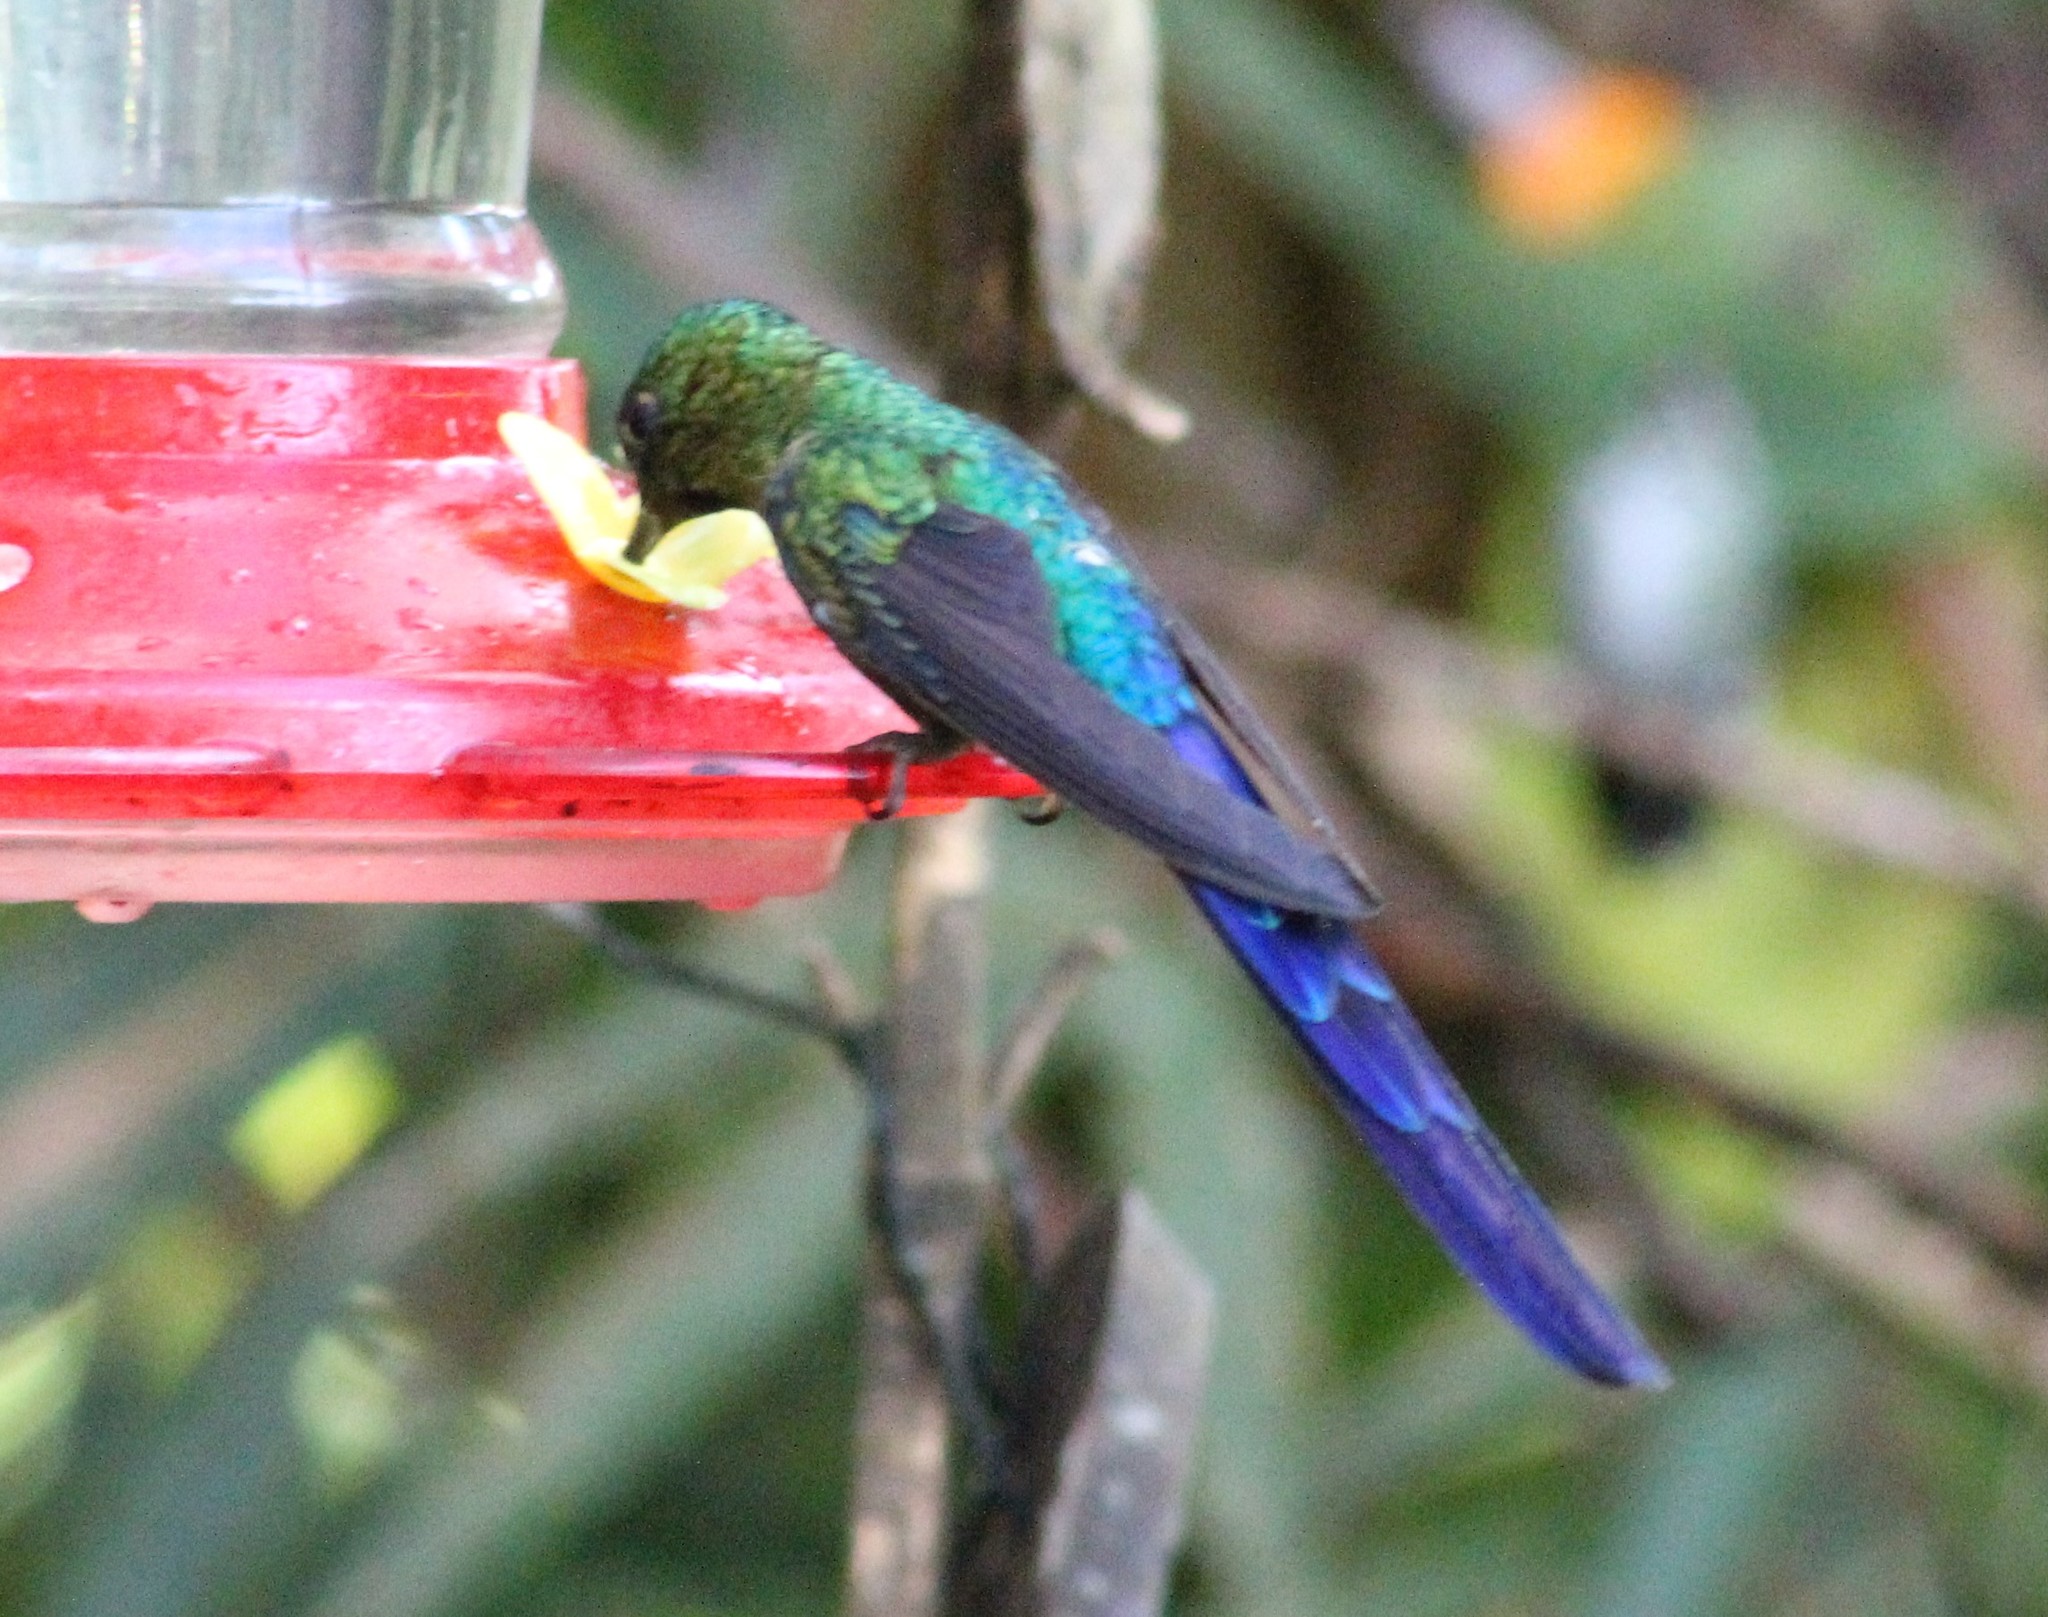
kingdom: Animalia
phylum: Chordata
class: Aves
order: Apodiformes
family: Trochilidae
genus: Aglaiocercus
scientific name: Aglaiocercus coelestis
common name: Violet-tailed sylph
